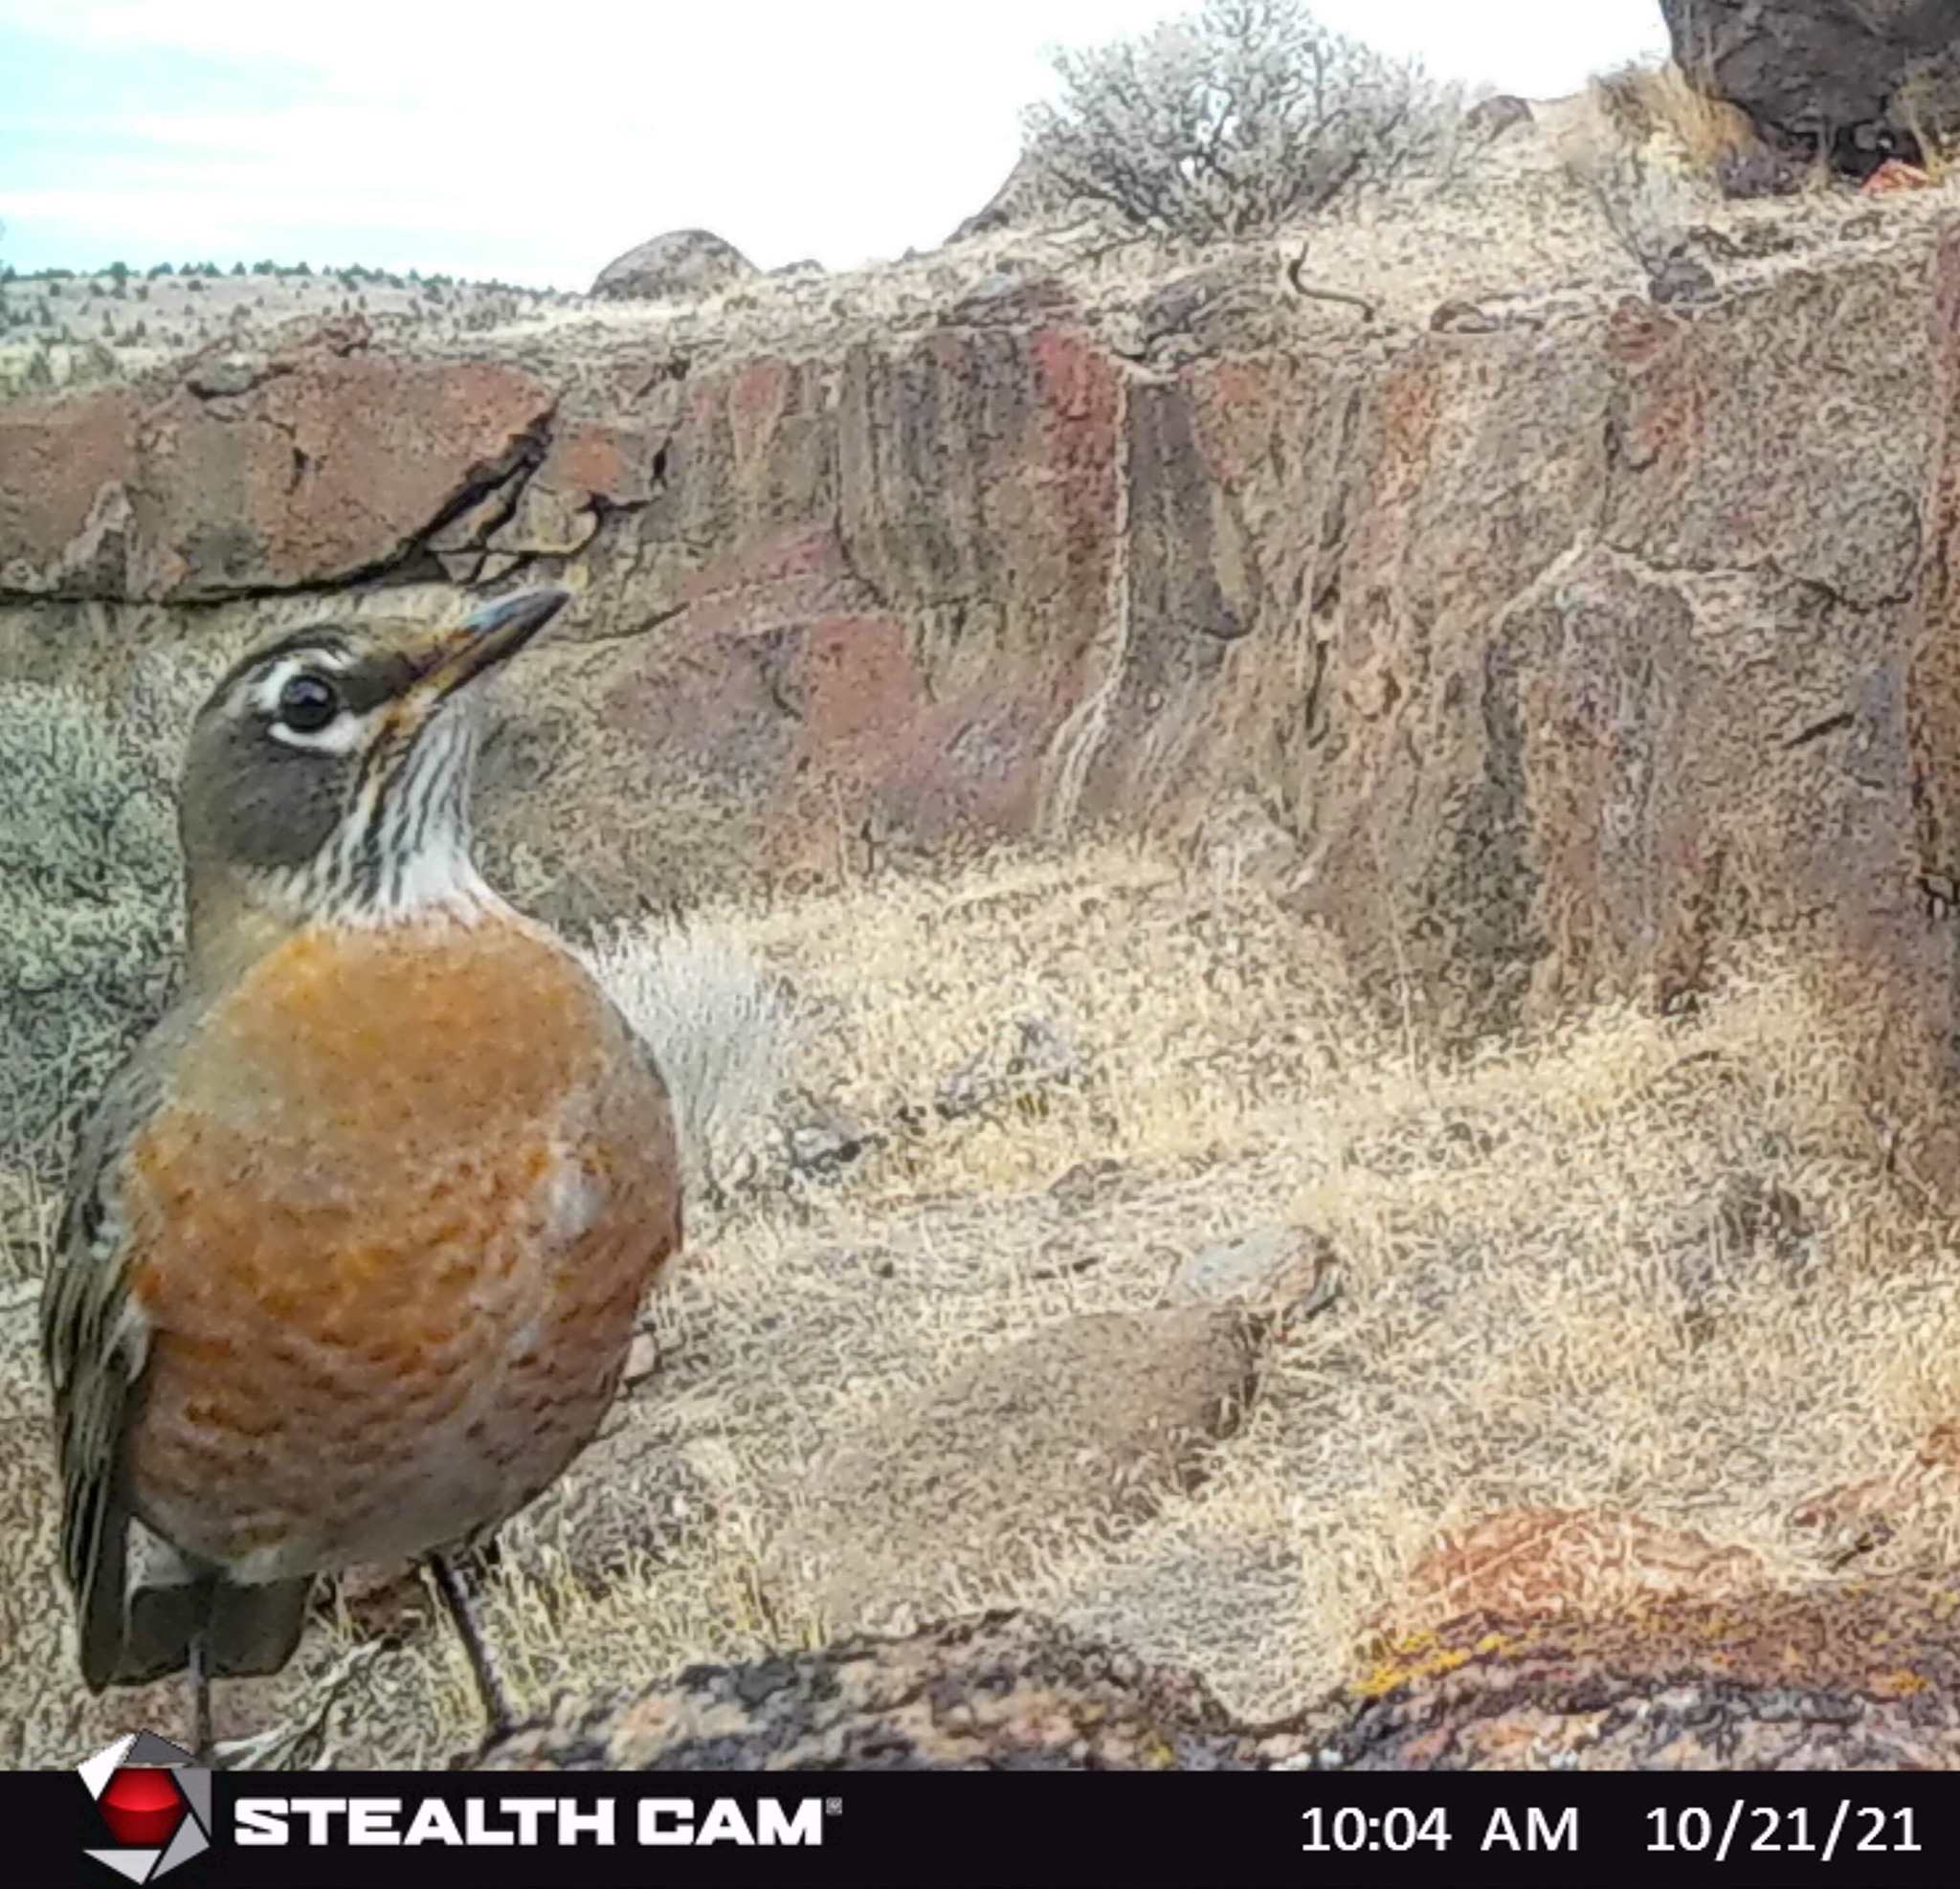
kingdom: Animalia
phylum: Chordata
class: Aves
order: Passeriformes
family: Turdidae
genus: Turdus
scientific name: Turdus migratorius
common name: American robin
